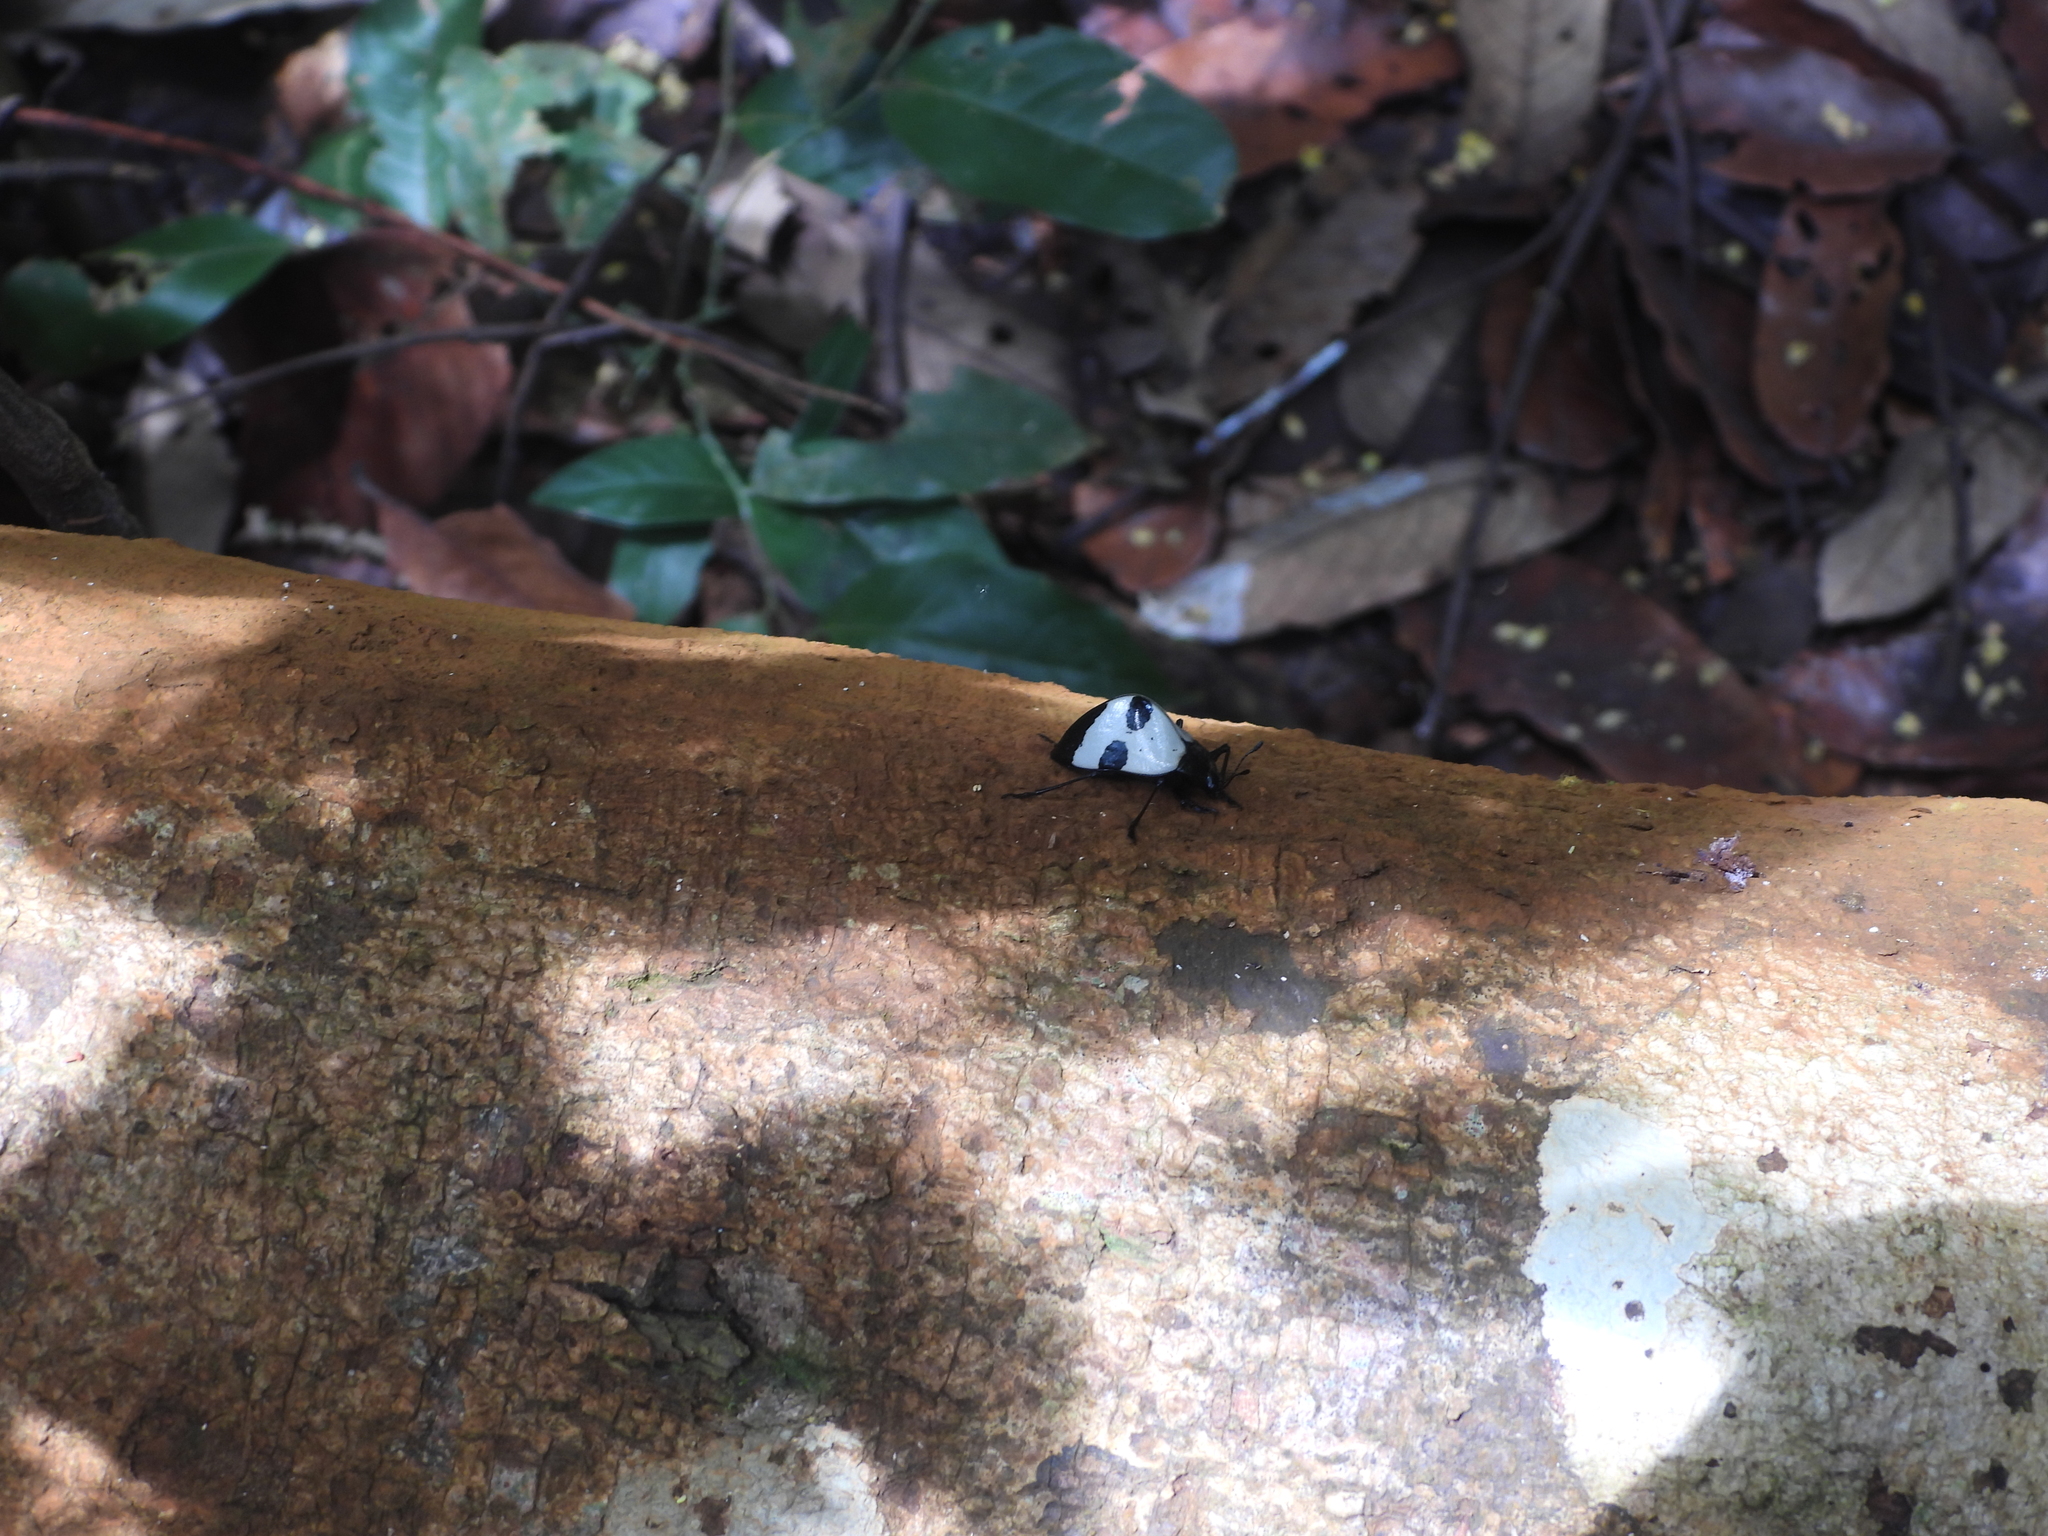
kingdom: Animalia
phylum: Arthropoda
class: Insecta
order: Coleoptera
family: Erotylidae
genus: Gibbifer
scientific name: Gibbifer
